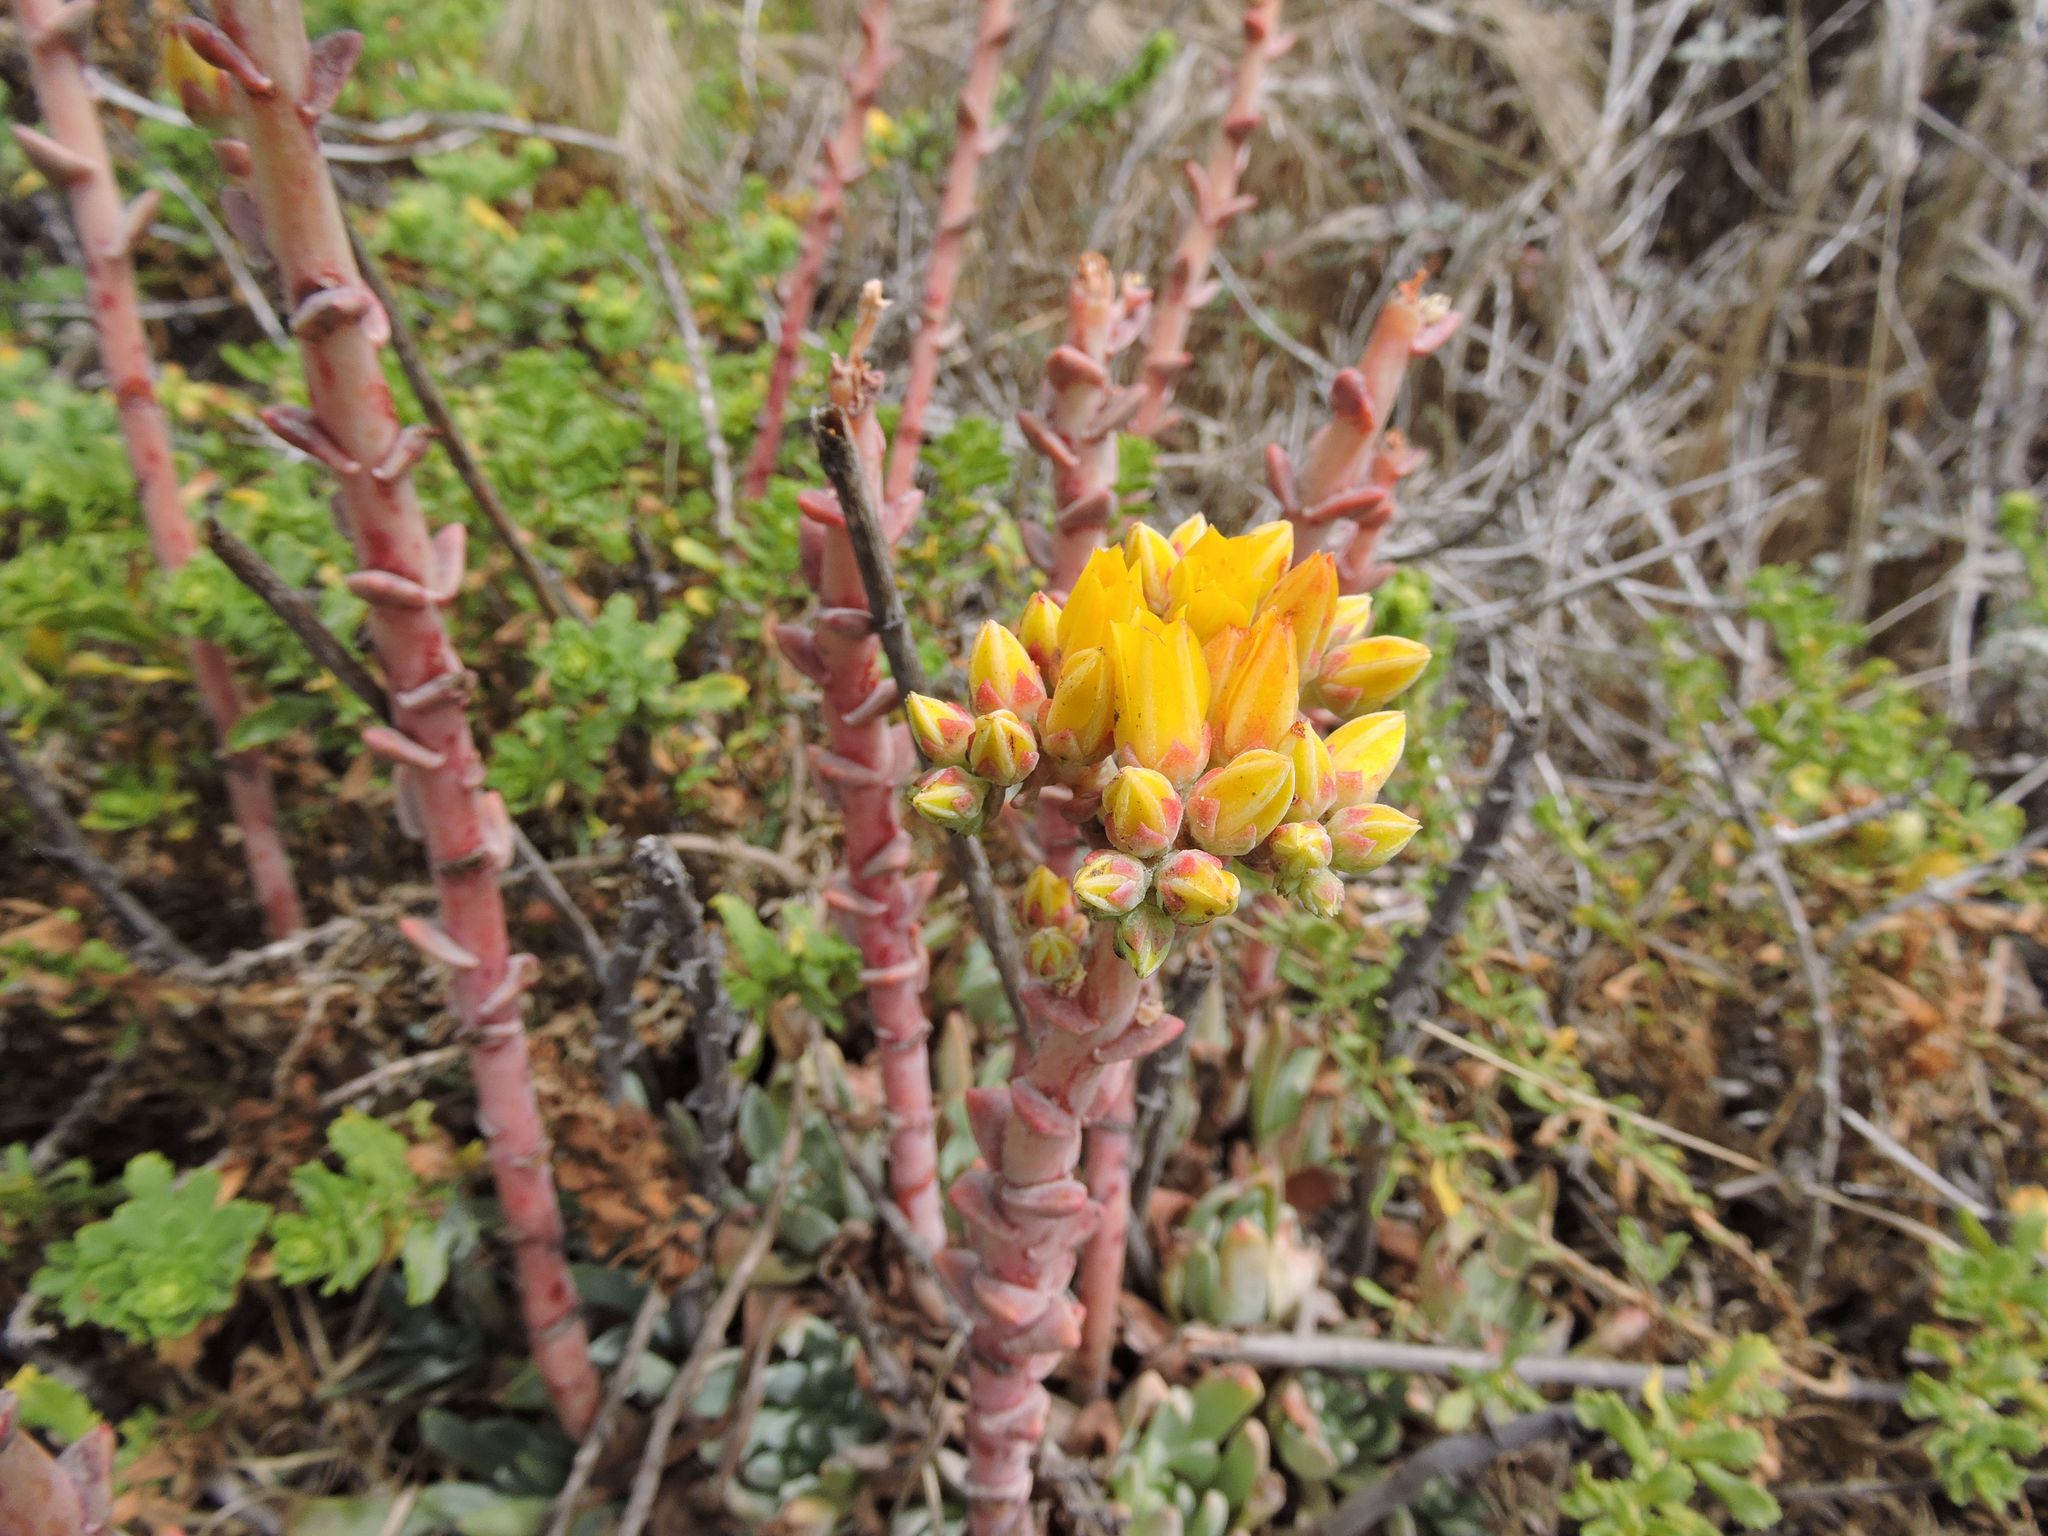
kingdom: Plantae
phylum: Tracheophyta
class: Magnoliopsida
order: Saxifragales
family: Crassulaceae
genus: Dudleya
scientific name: Dudleya caespitosa
